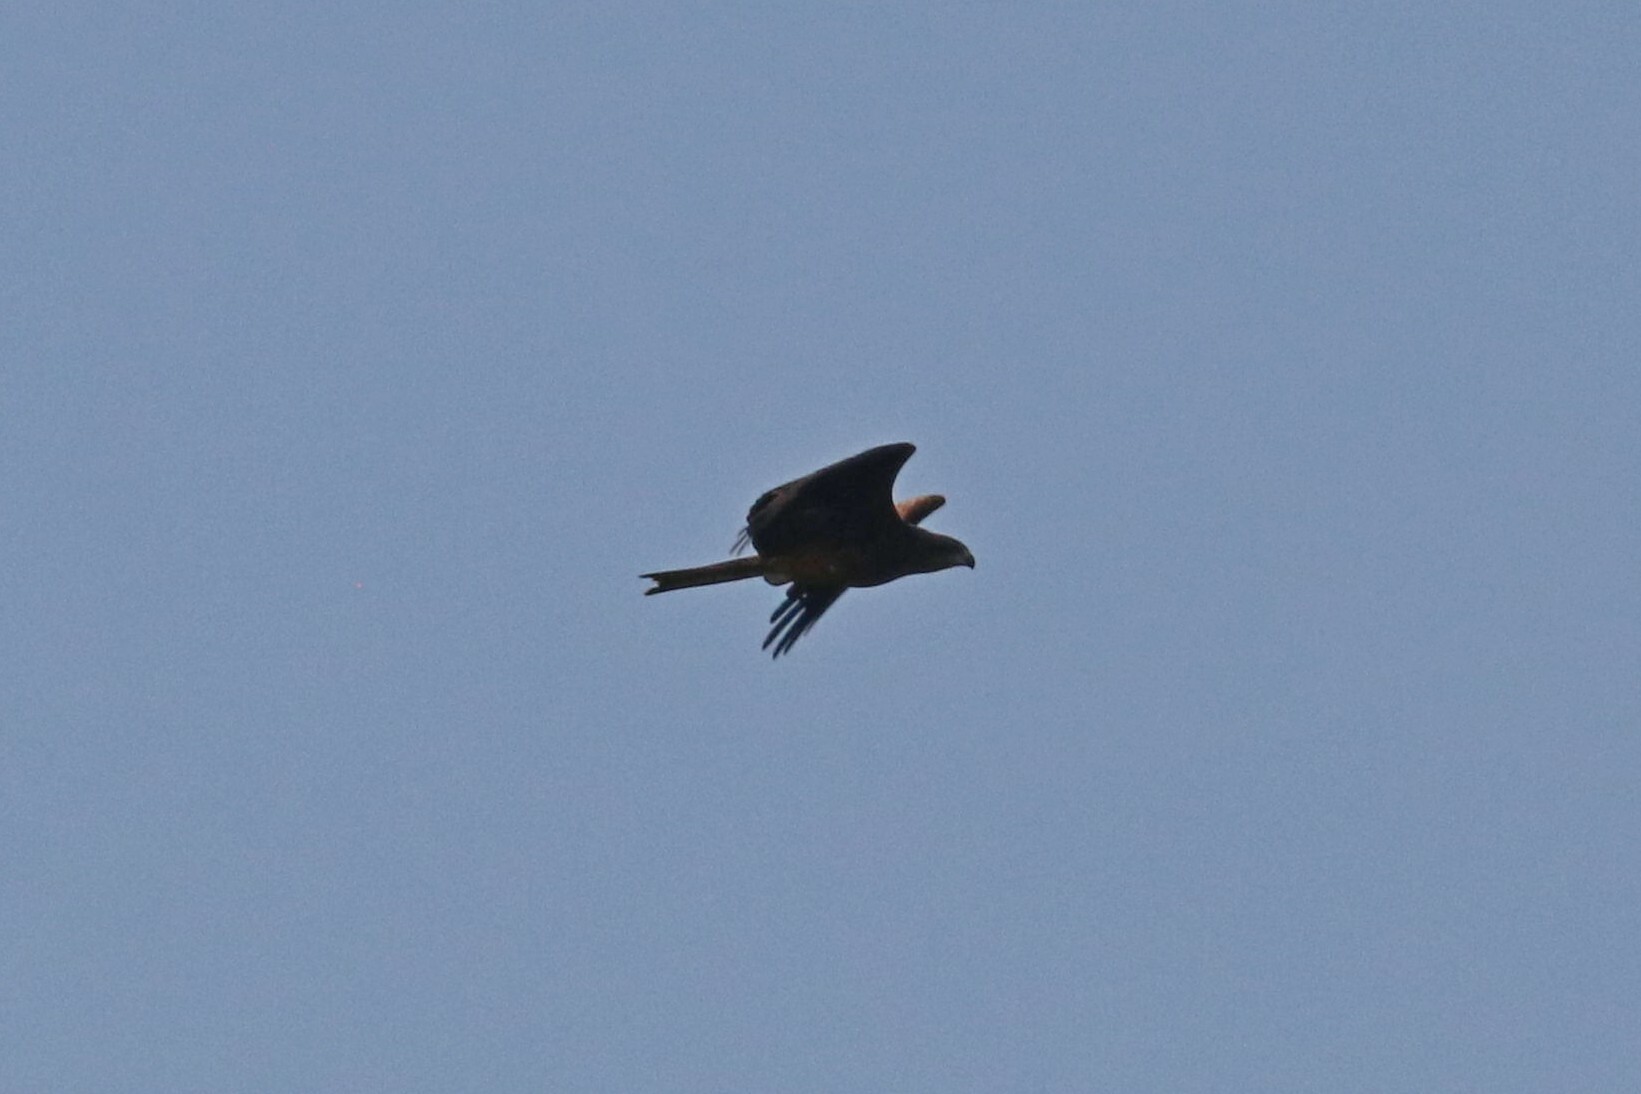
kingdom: Animalia
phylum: Chordata
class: Aves
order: Accipitriformes
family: Accipitridae
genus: Milvus
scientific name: Milvus migrans
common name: Black kite
